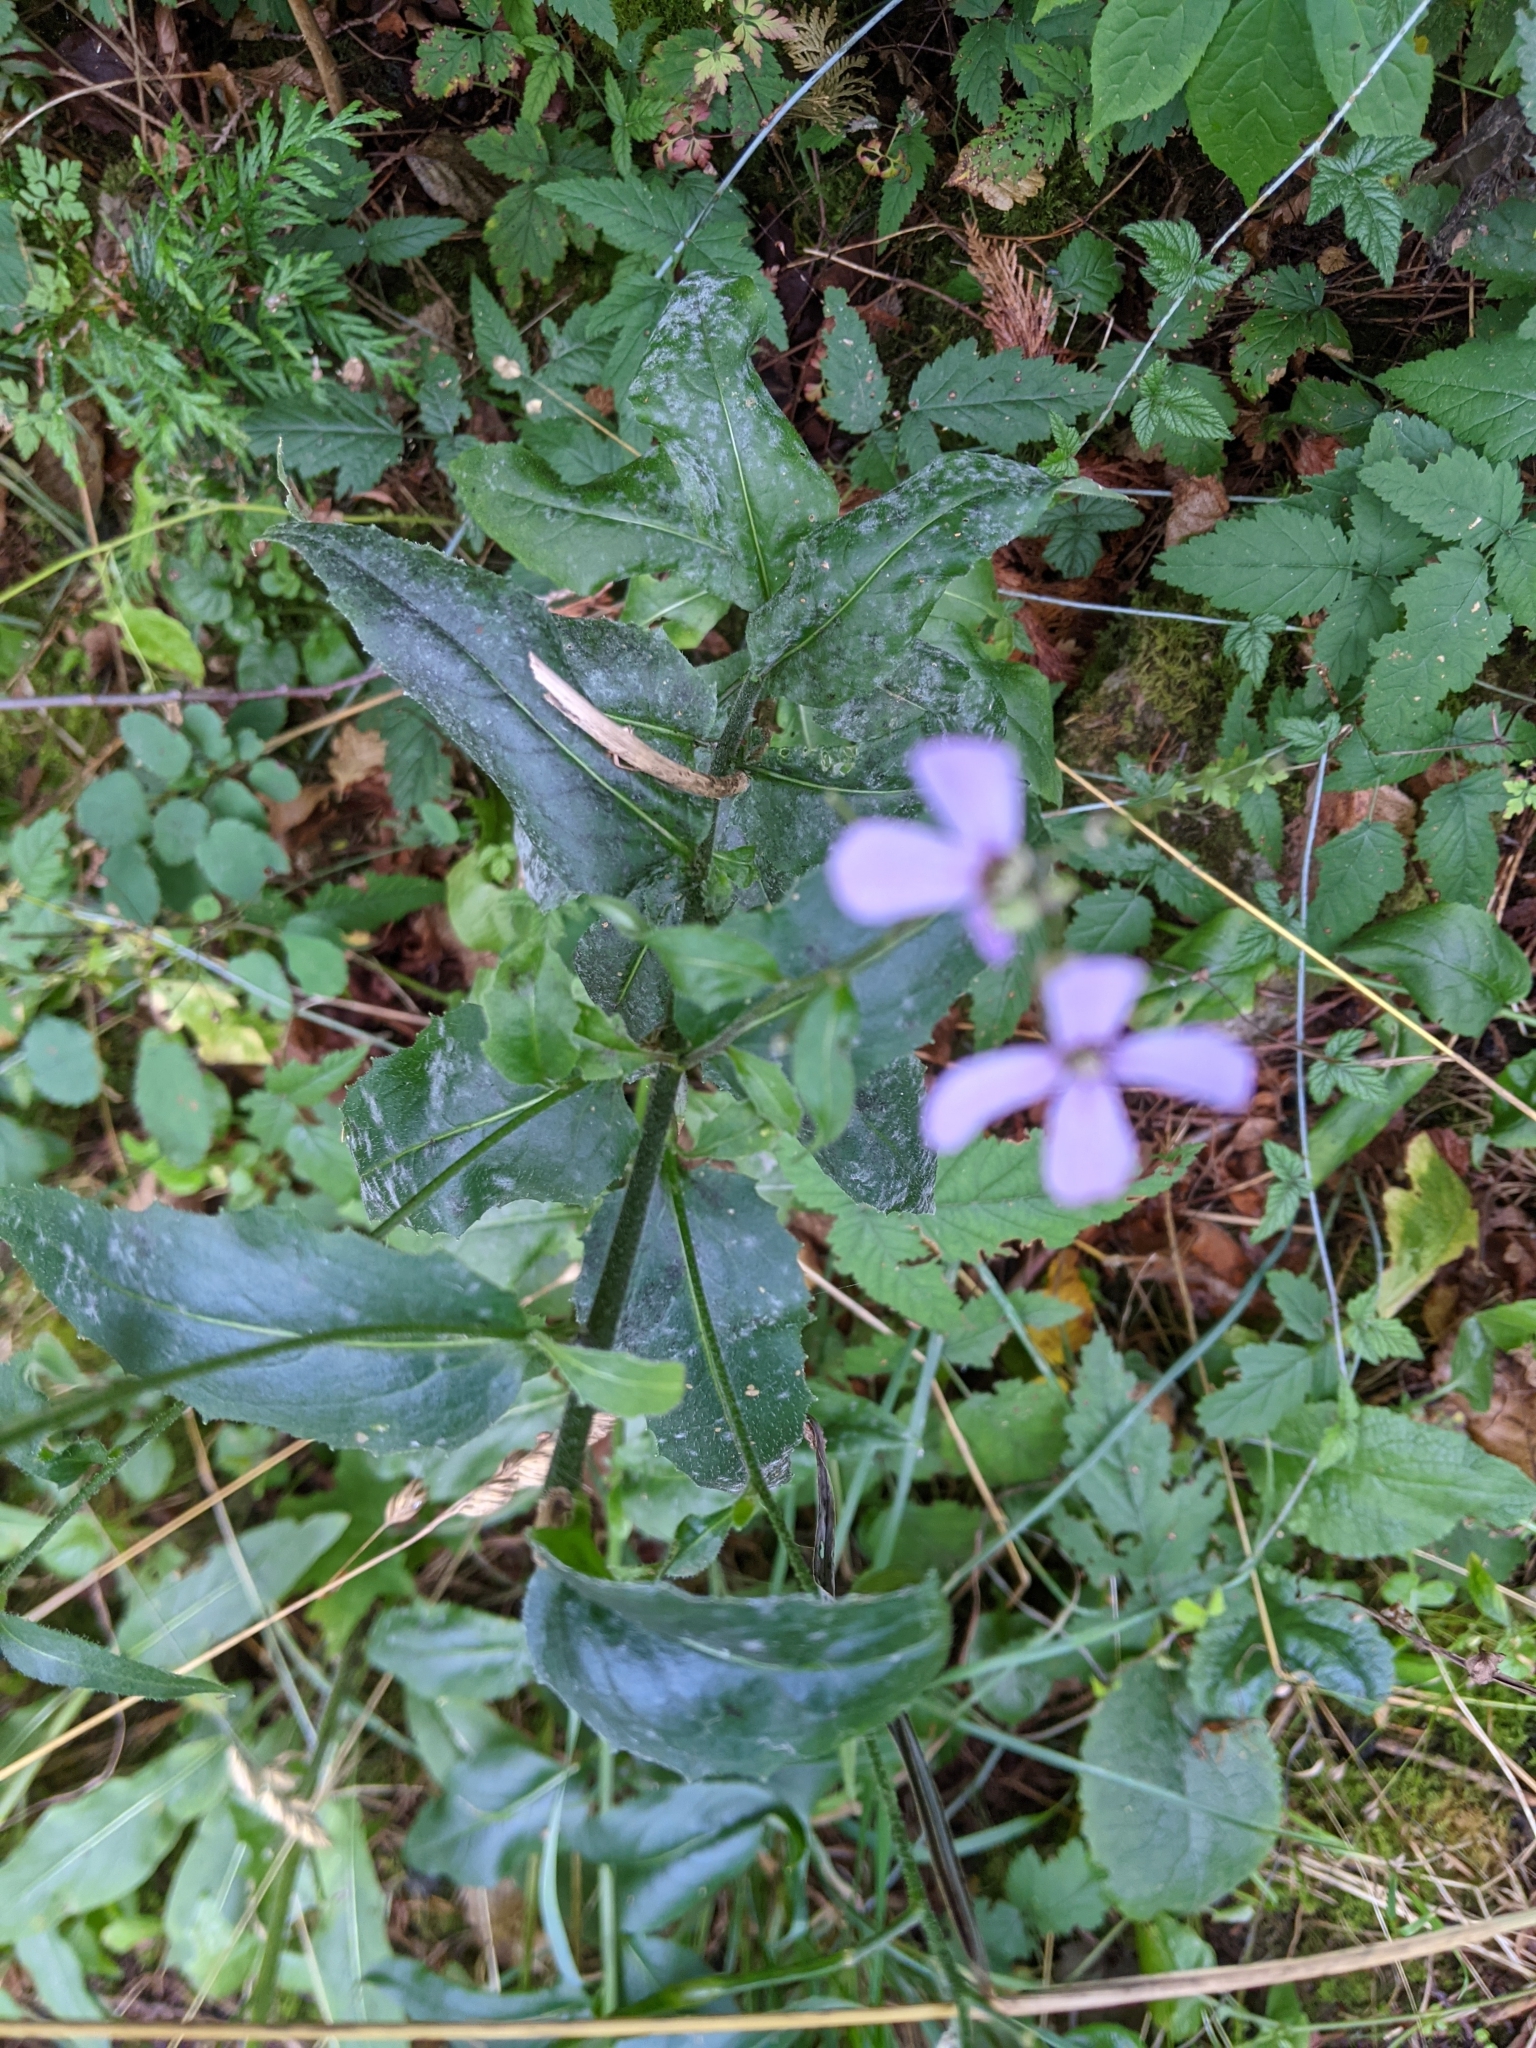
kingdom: Plantae
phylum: Tracheophyta
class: Magnoliopsida
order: Brassicales
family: Brassicaceae
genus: Hesperis
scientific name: Hesperis matronalis
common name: Dame's-violet
